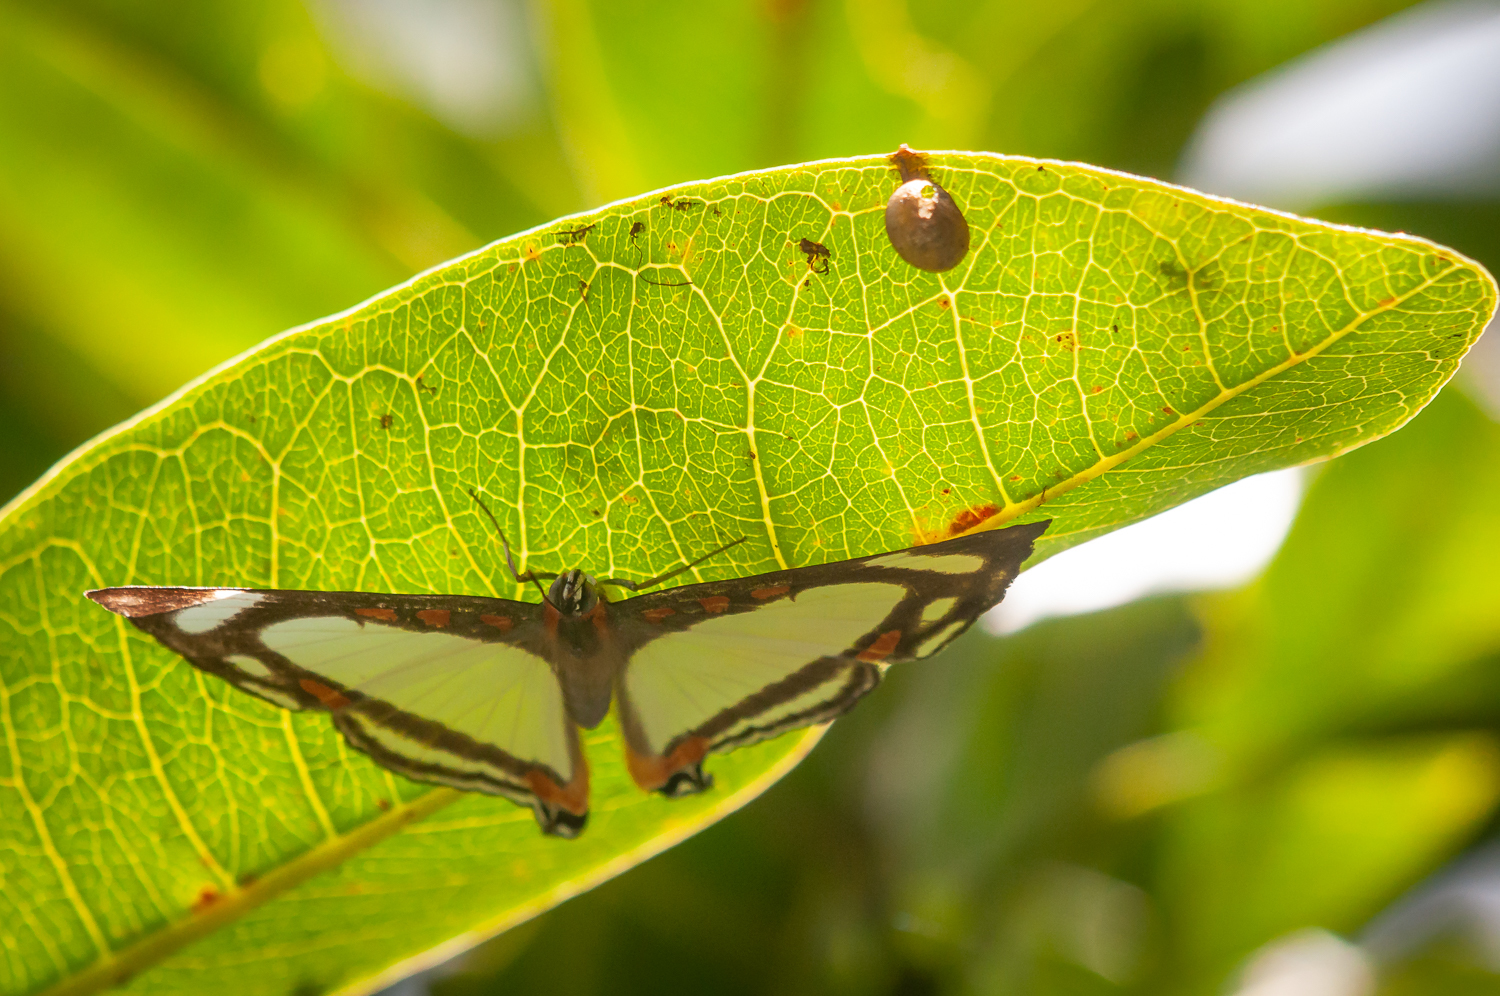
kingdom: Animalia
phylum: Arthropoda
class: Insecta
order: Lepidoptera
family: Riodinidae
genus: Thisbe
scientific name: Thisbe lycorias
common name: Banner metalmark
